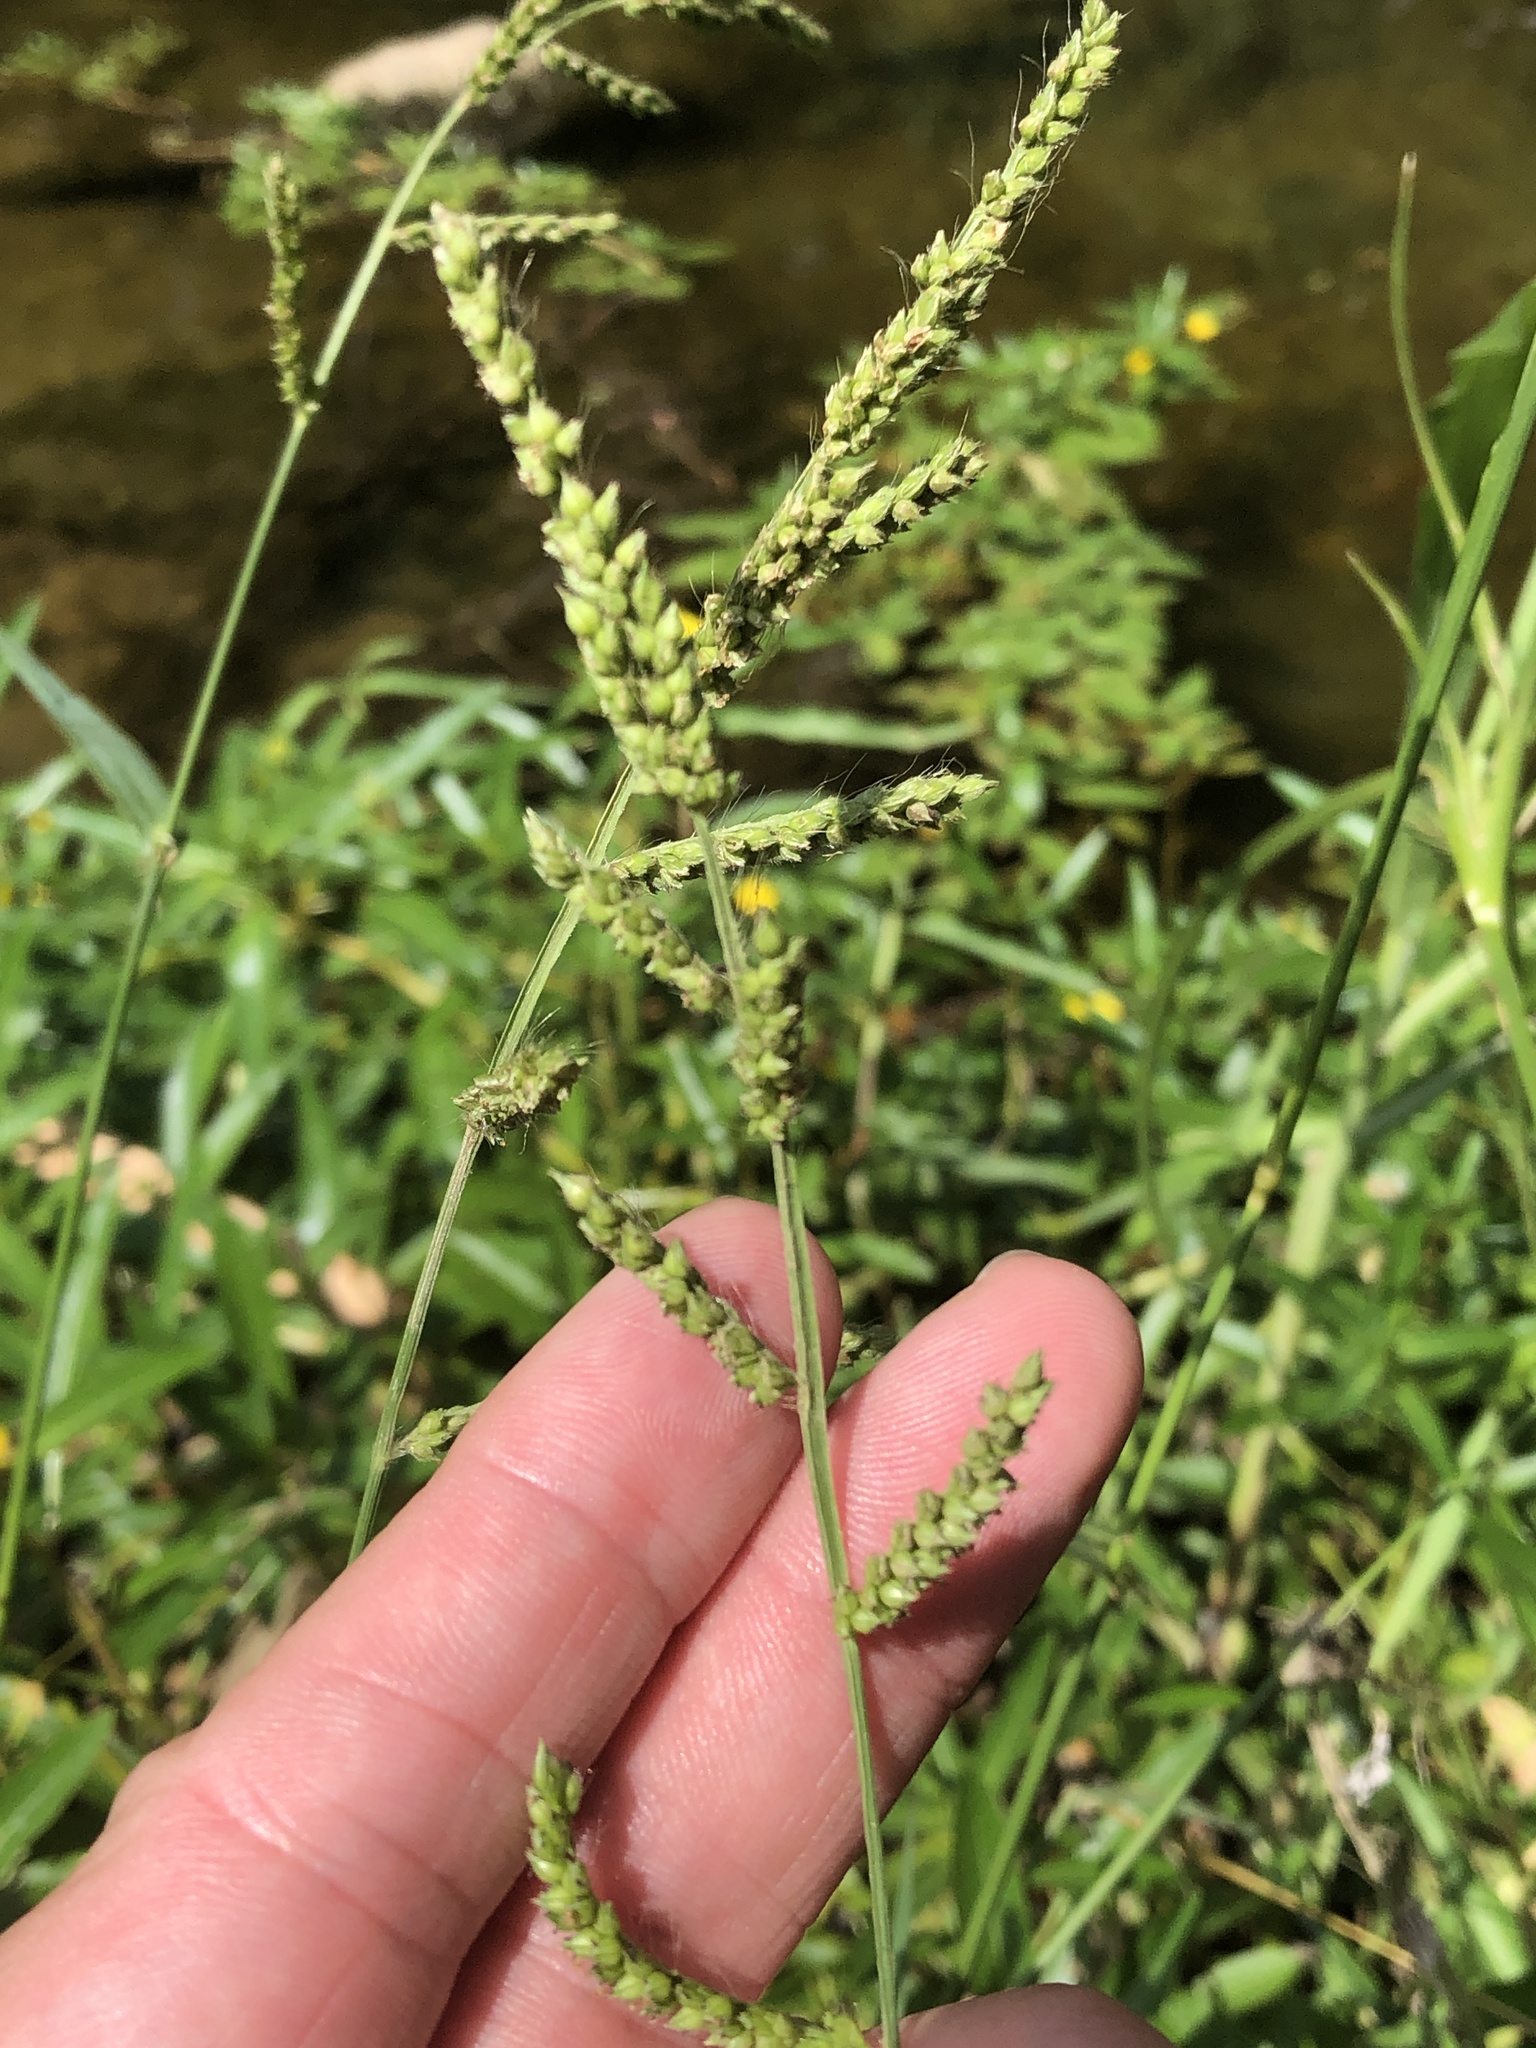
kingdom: Plantae
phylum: Tracheophyta
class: Liliopsida
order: Poales
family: Poaceae
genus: Echinochloa
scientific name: Echinochloa crus-galli
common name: Cockspur
